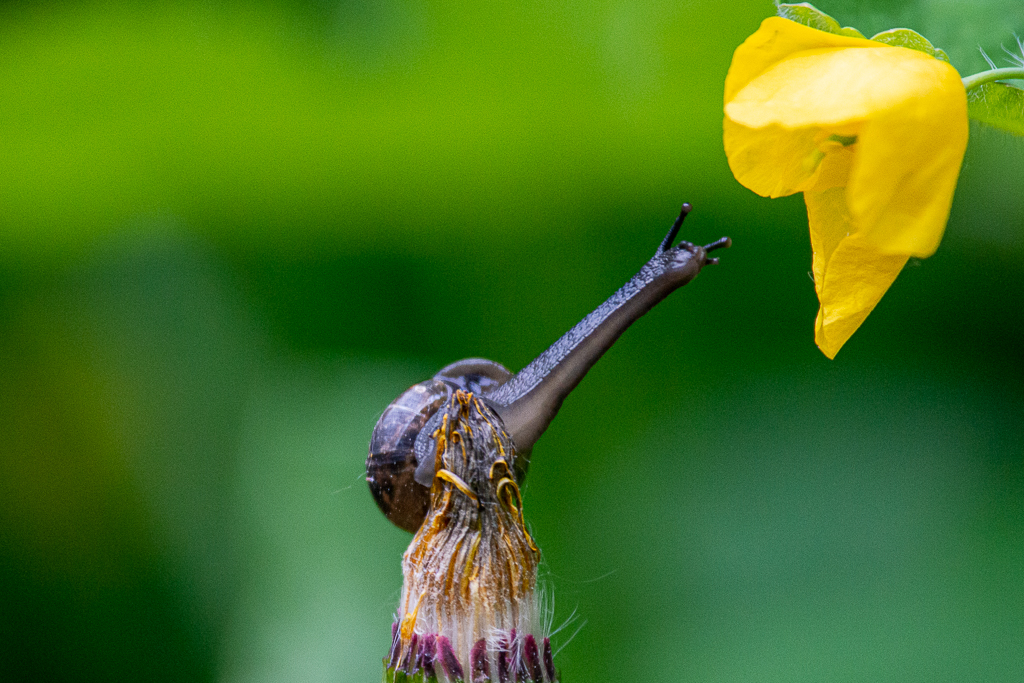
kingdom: Animalia
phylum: Mollusca
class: Gastropoda
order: Stylommatophora
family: Helicidae
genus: Arianta
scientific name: Arianta arbustorum
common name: Copse snail
